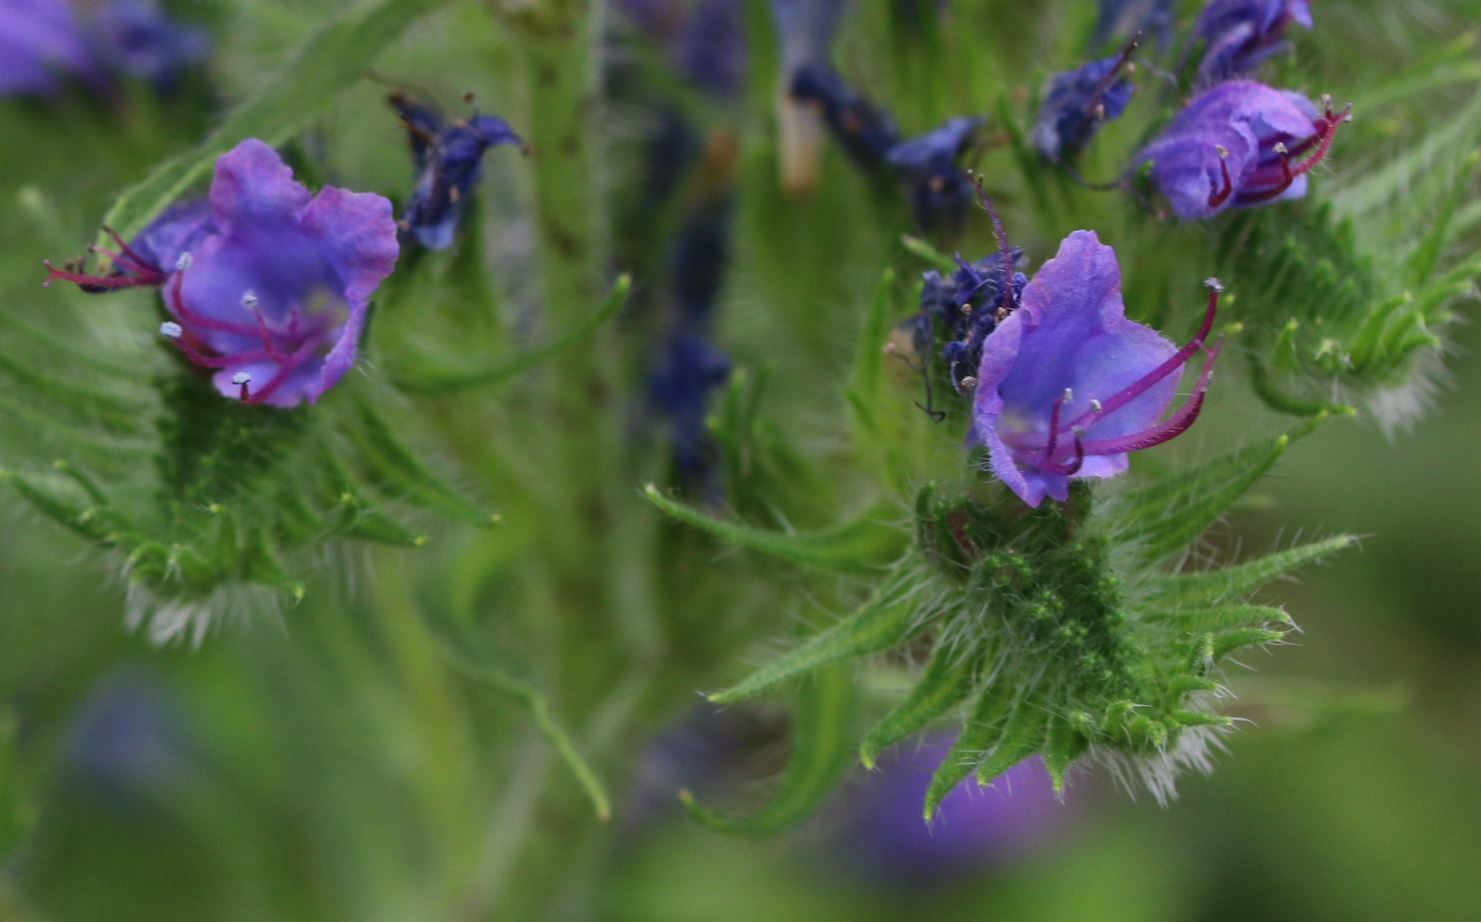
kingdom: Plantae
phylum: Tracheophyta
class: Magnoliopsida
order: Boraginales
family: Boraginaceae
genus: Echium
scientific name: Echium vulgare
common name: Common viper's bugloss
